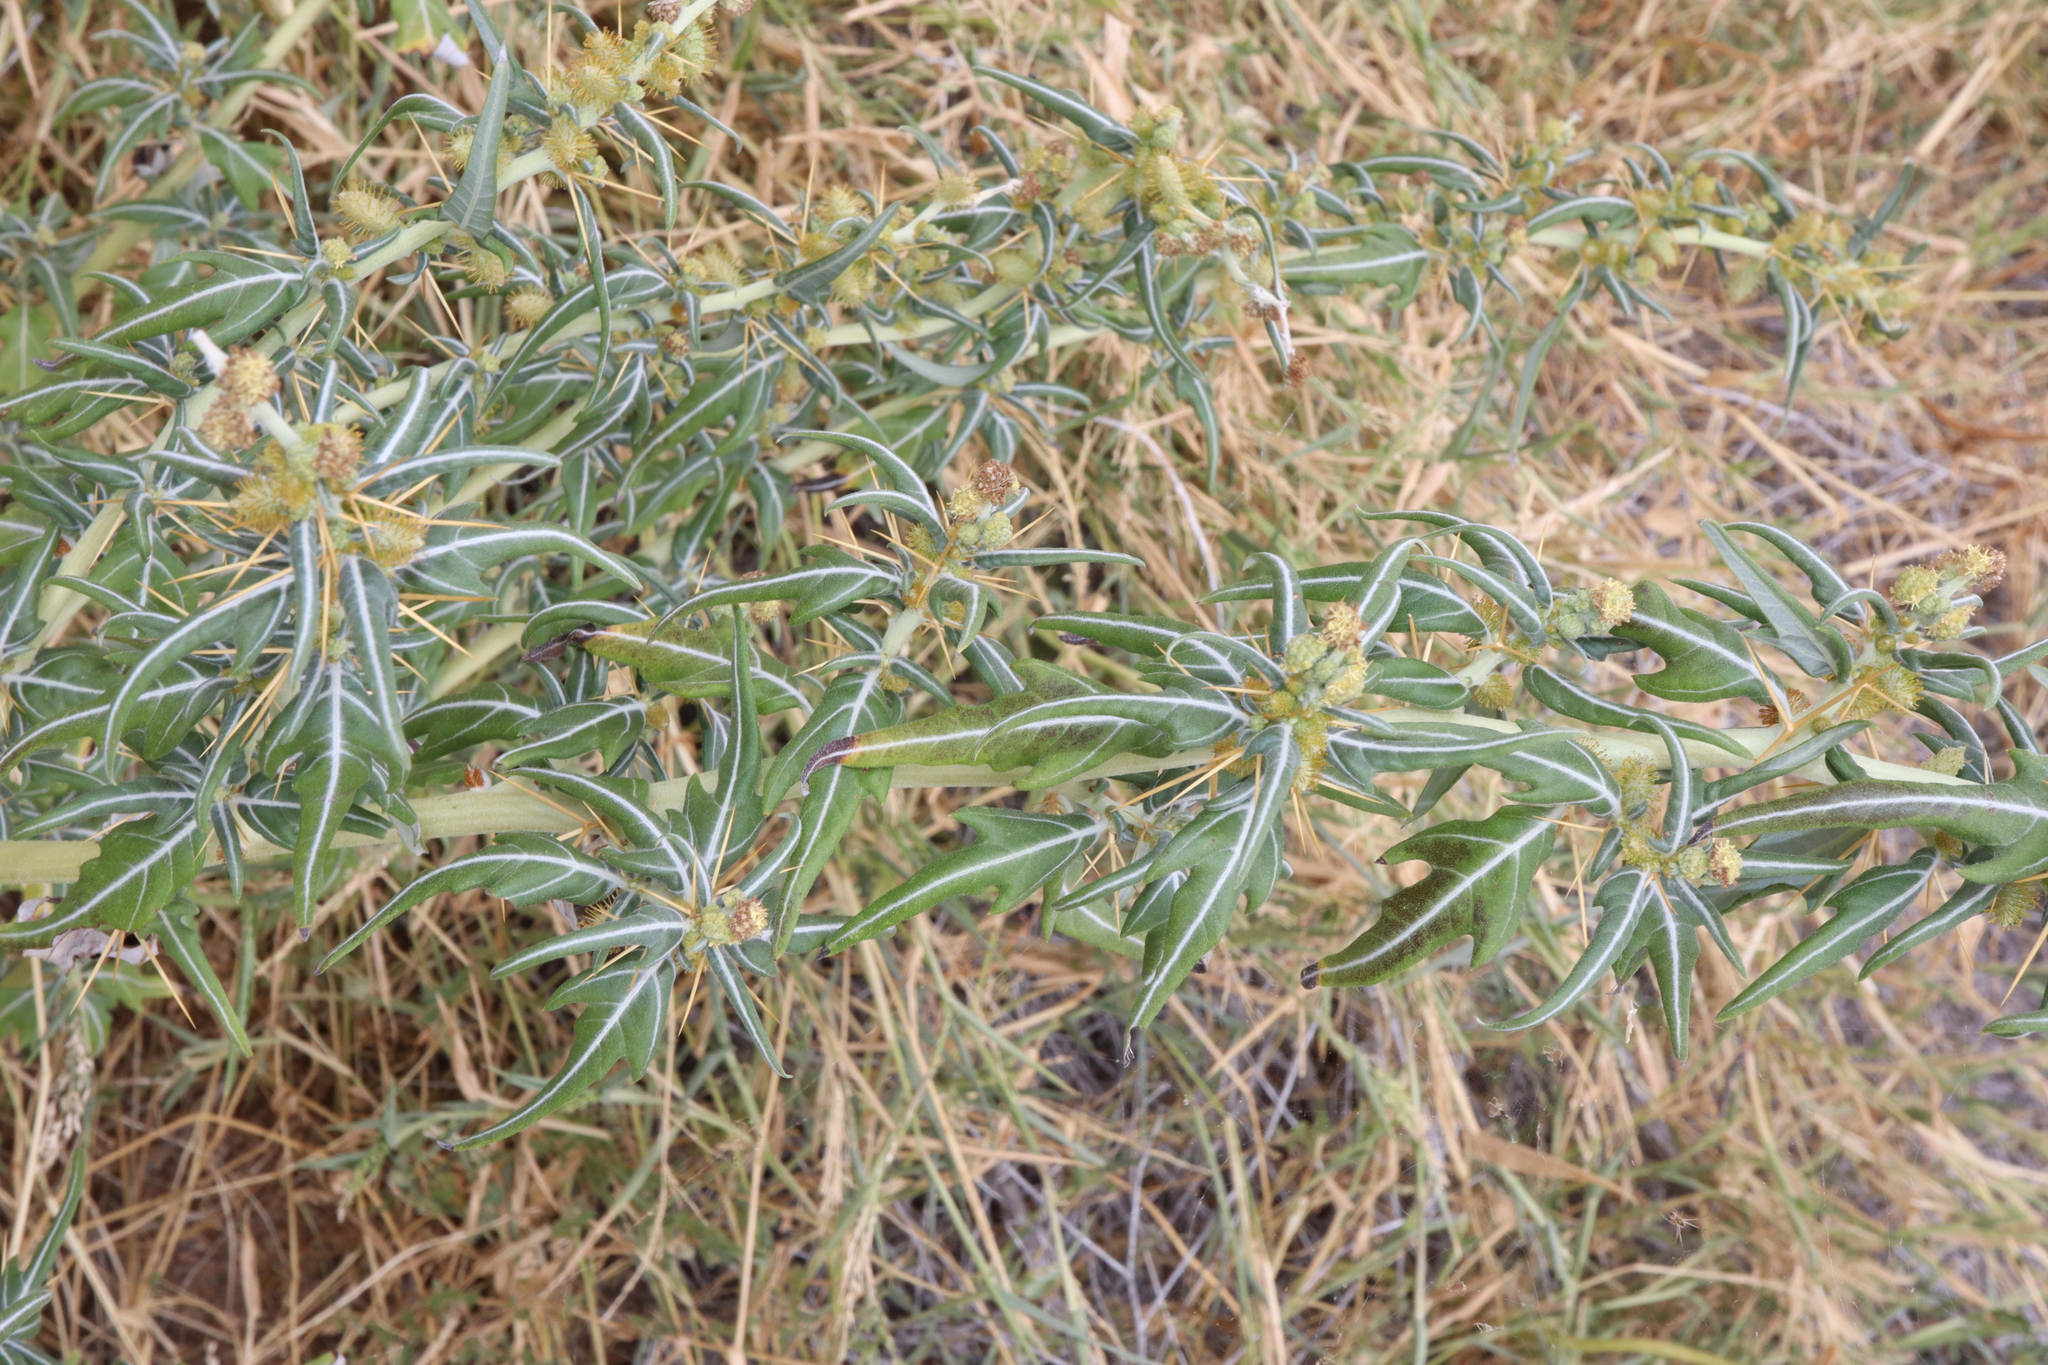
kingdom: Plantae
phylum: Tracheophyta
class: Magnoliopsida
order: Asterales
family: Asteraceae
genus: Xanthium
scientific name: Xanthium spinosum
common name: Spiny cocklebur
